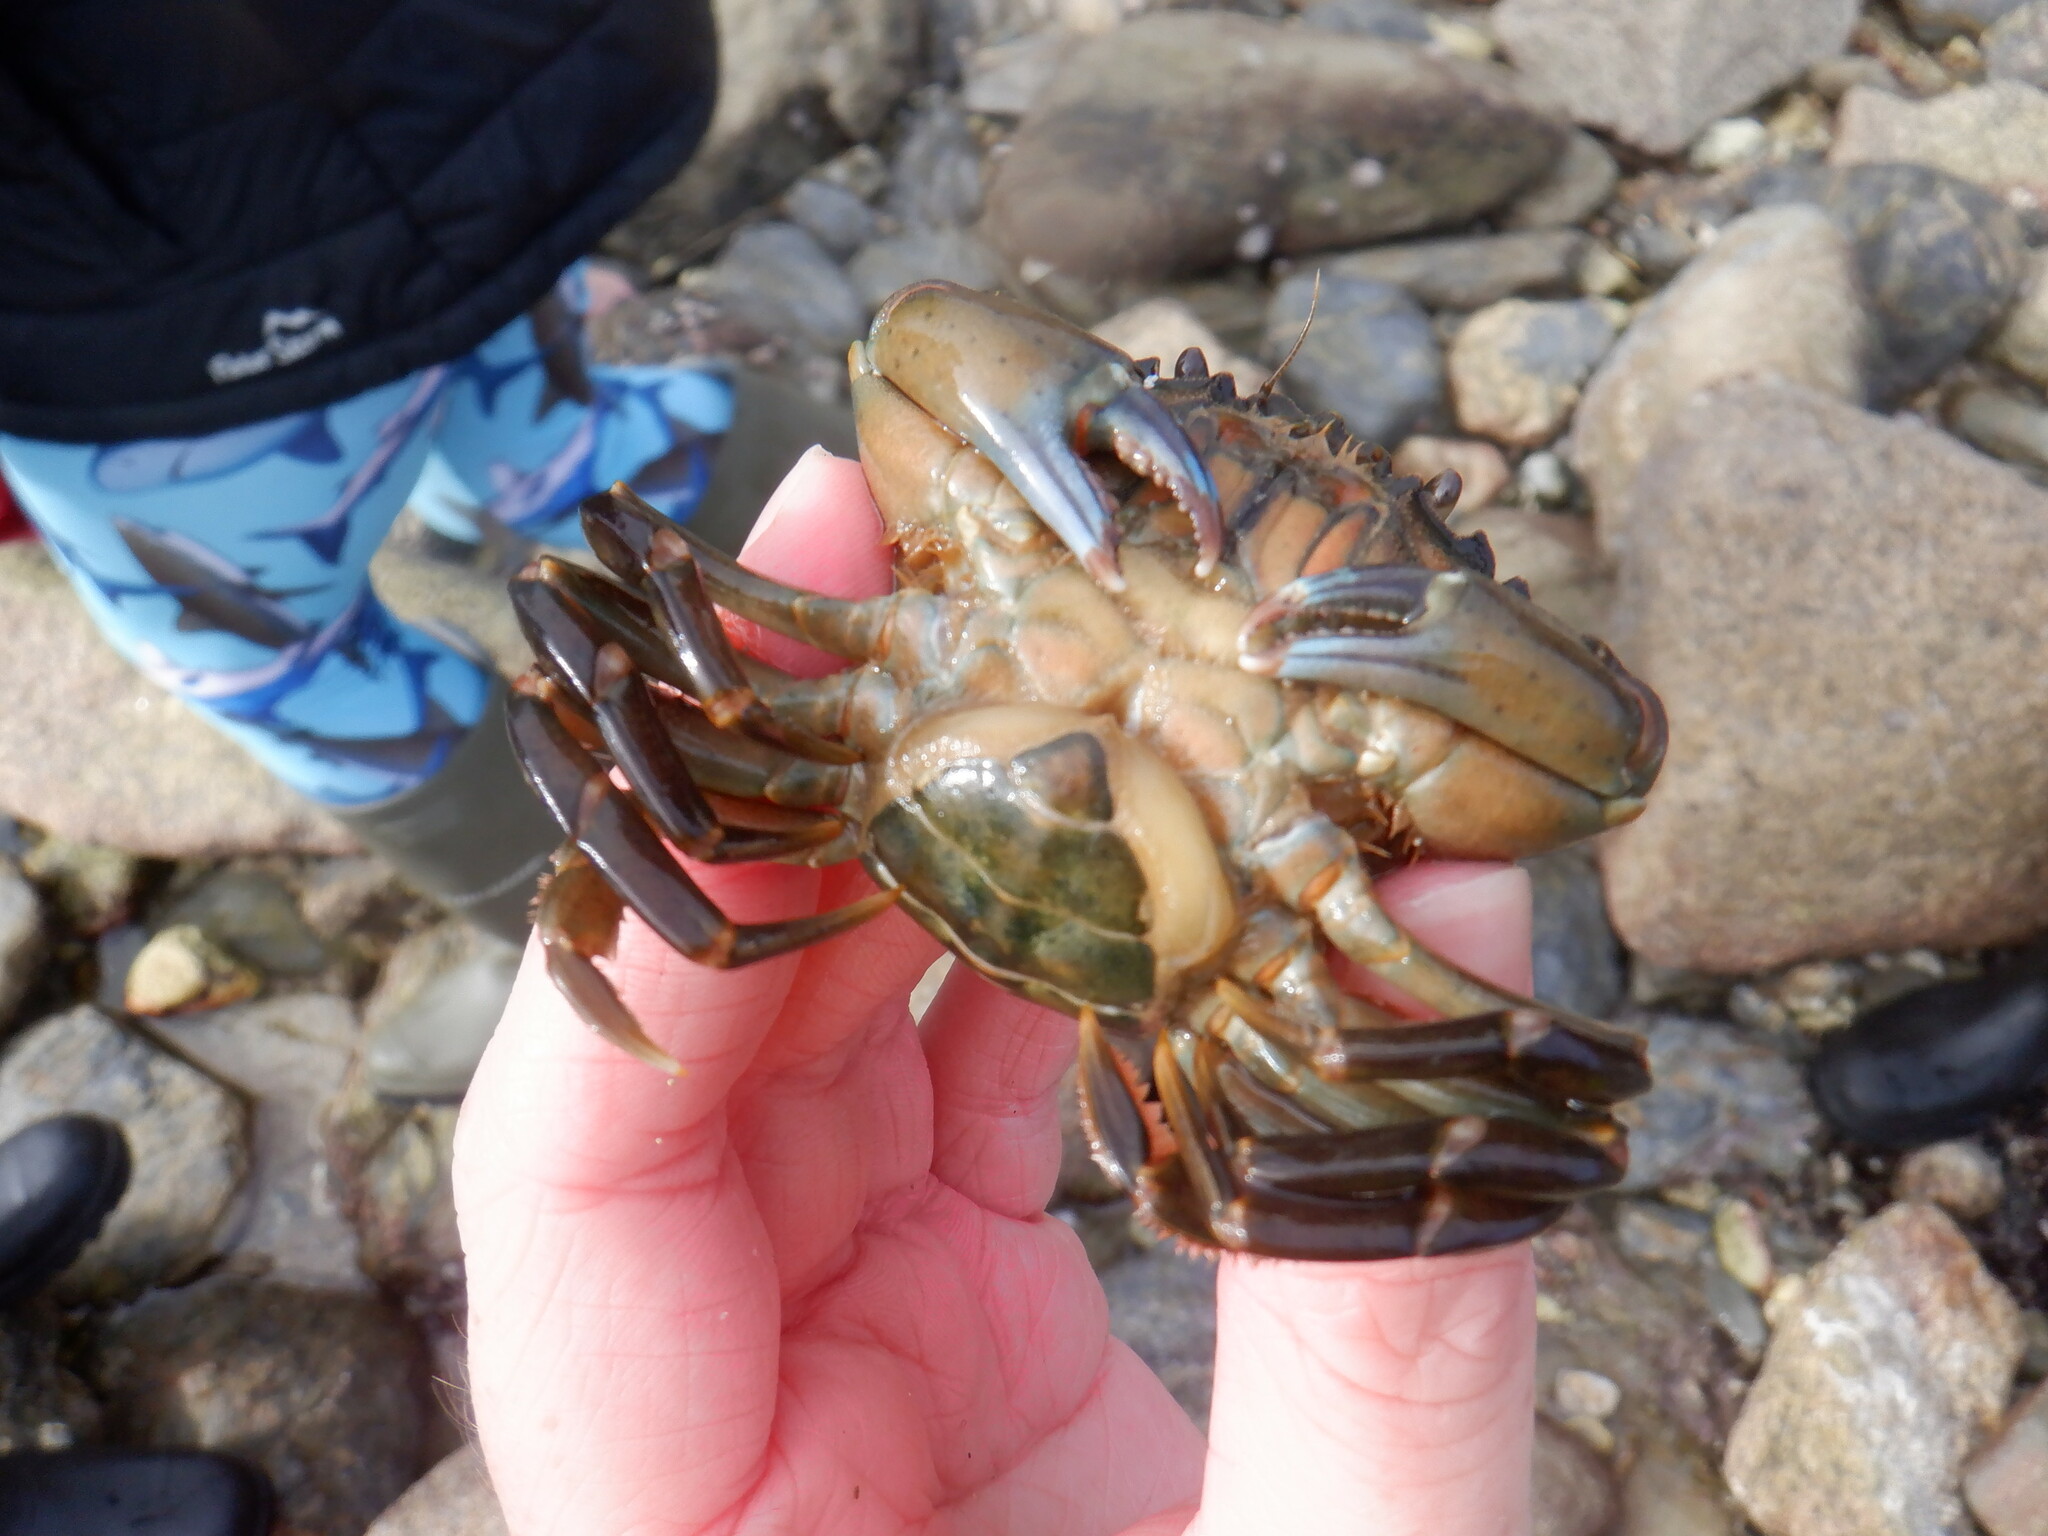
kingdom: Animalia
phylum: Arthropoda
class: Malacostraca
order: Decapoda
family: Carcinidae
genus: Carcinus
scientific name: Carcinus maenas
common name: European green crab
